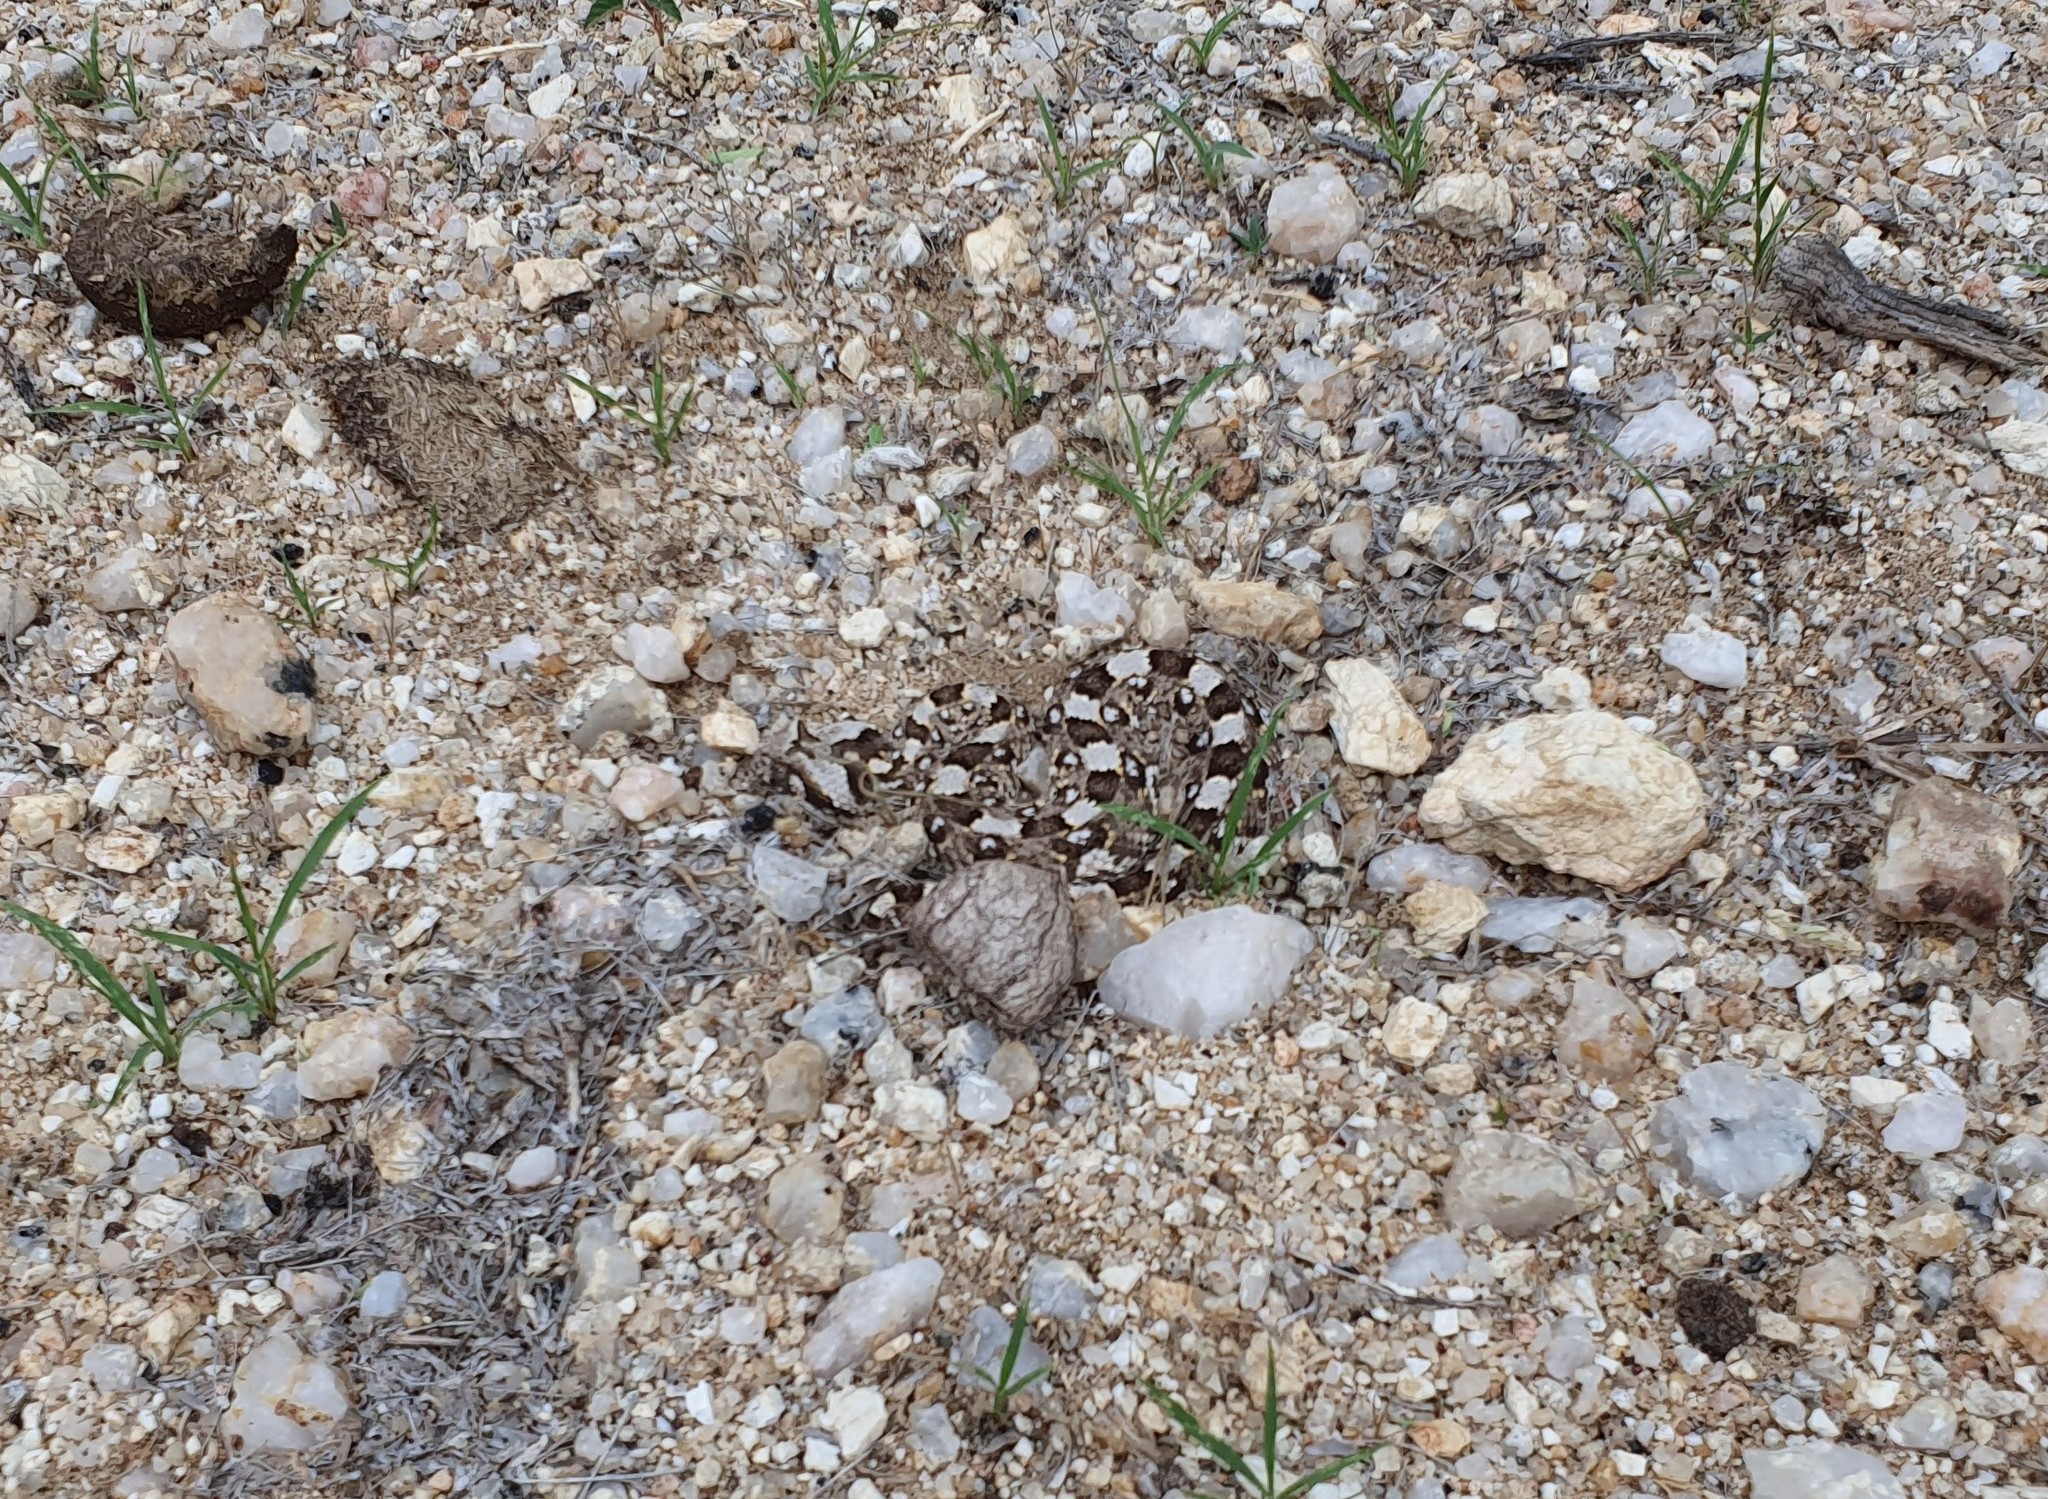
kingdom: Animalia
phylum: Chordata
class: Squamata
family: Viperidae
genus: Bitis
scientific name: Bitis caudalis
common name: Horned adder
